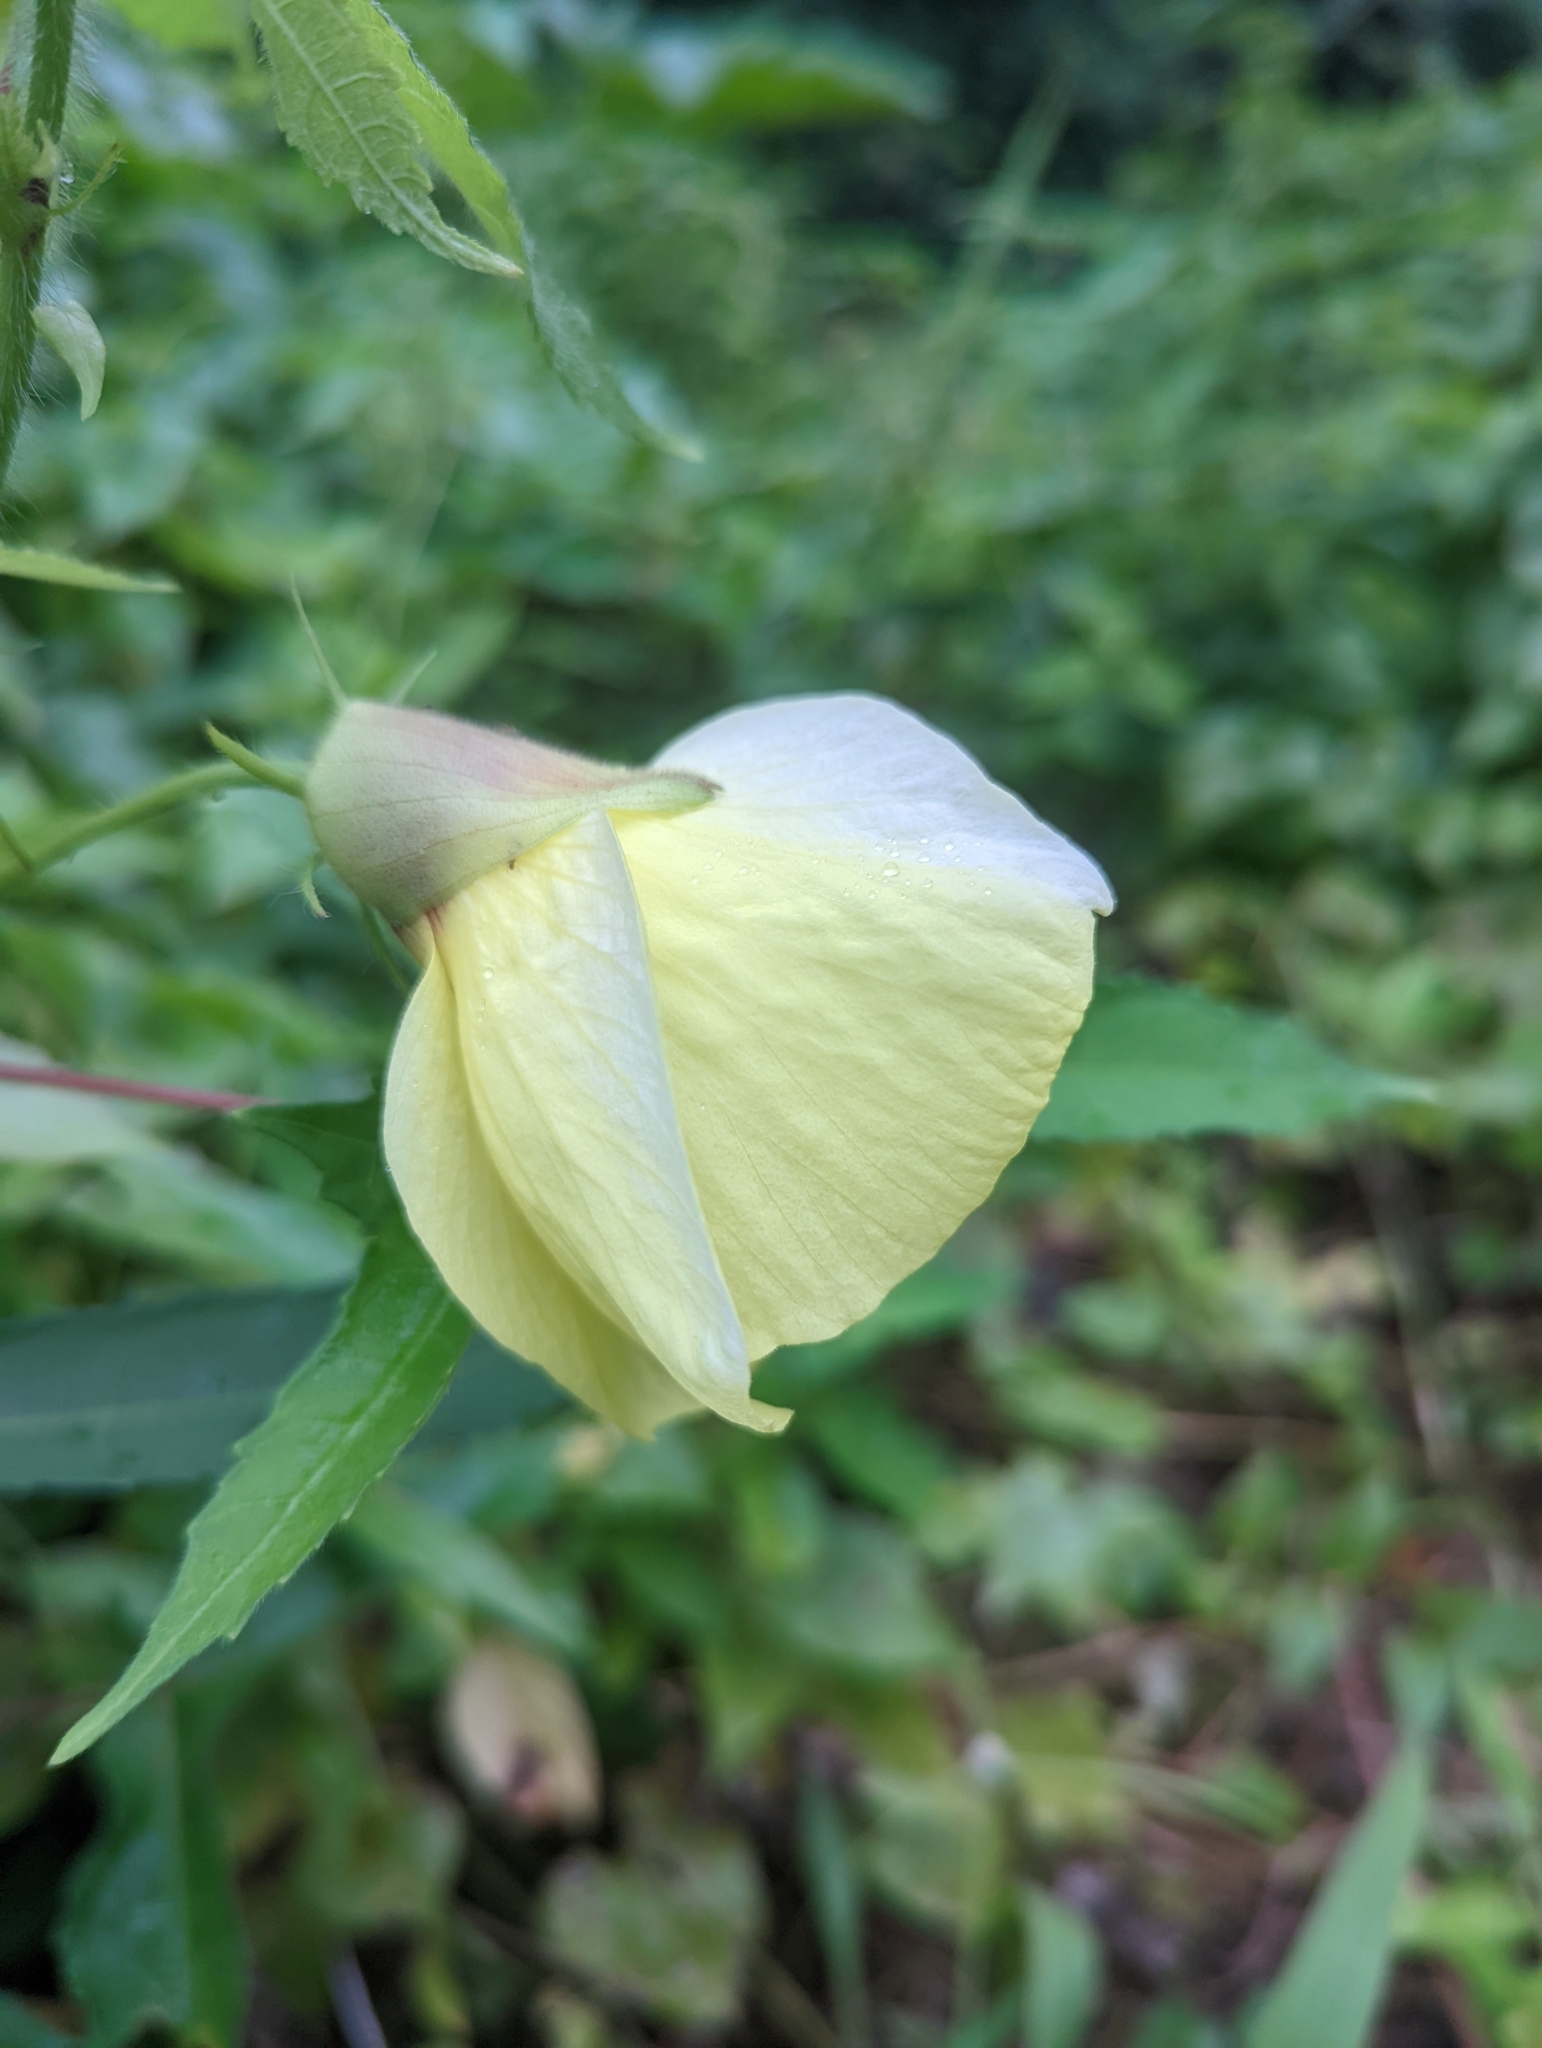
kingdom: Plantae
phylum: Tracheophyta
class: Magnoliopsida
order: Malvales
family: Malvaceae
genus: Abelmoschus
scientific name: Abelmoschus moschatus
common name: Musk okra
